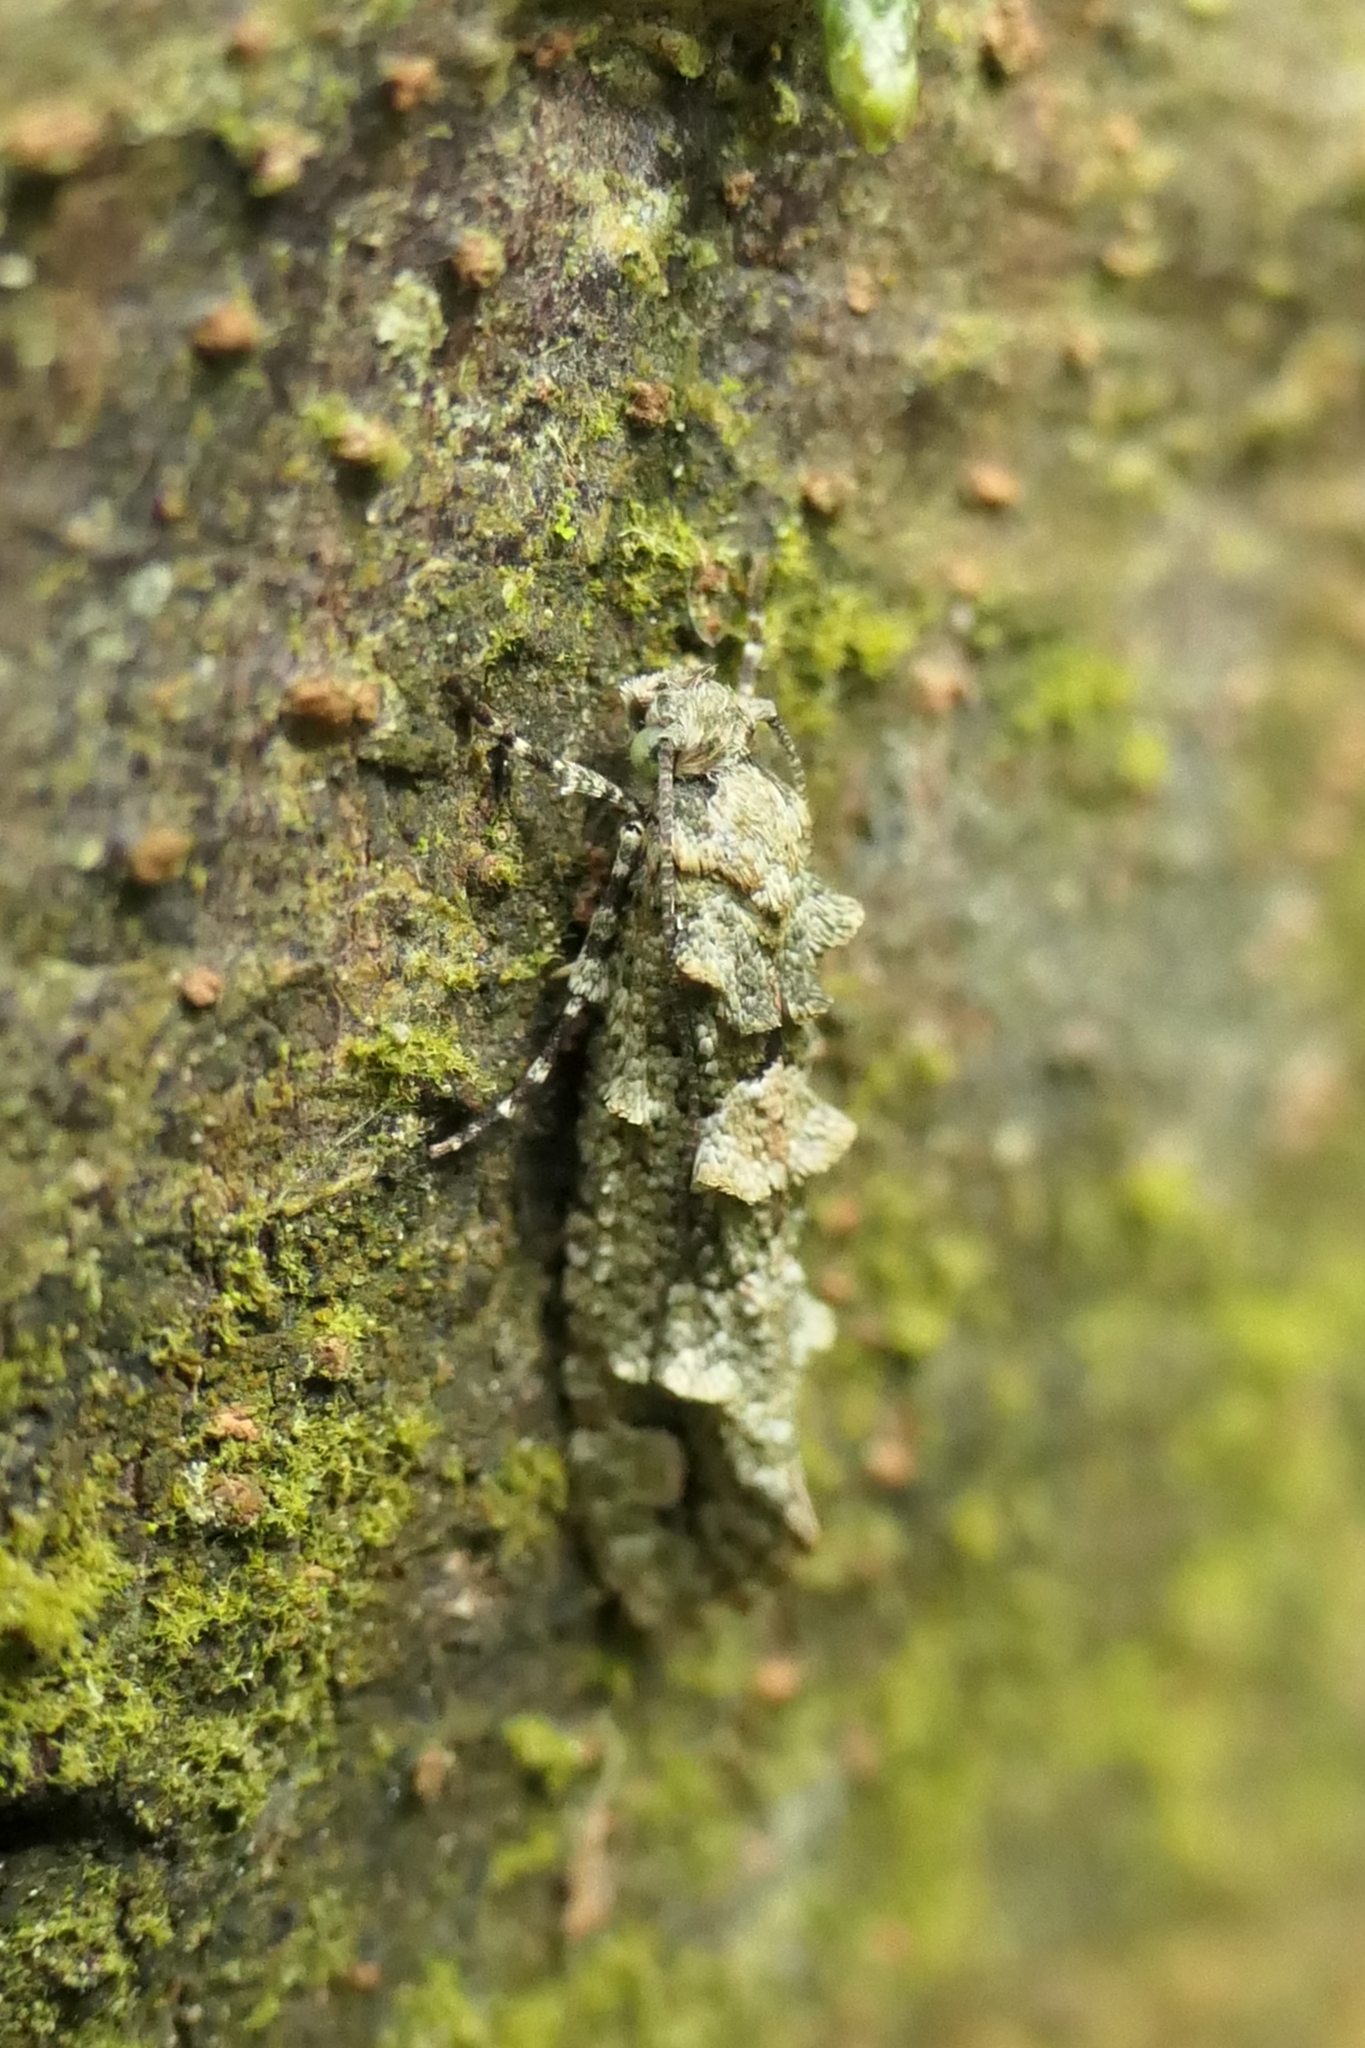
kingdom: Animalia
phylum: Arthropoda
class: Insecta
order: Lepidoptera
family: Tineidae
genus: Lysiphragma
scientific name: Lysiphragma howesii
